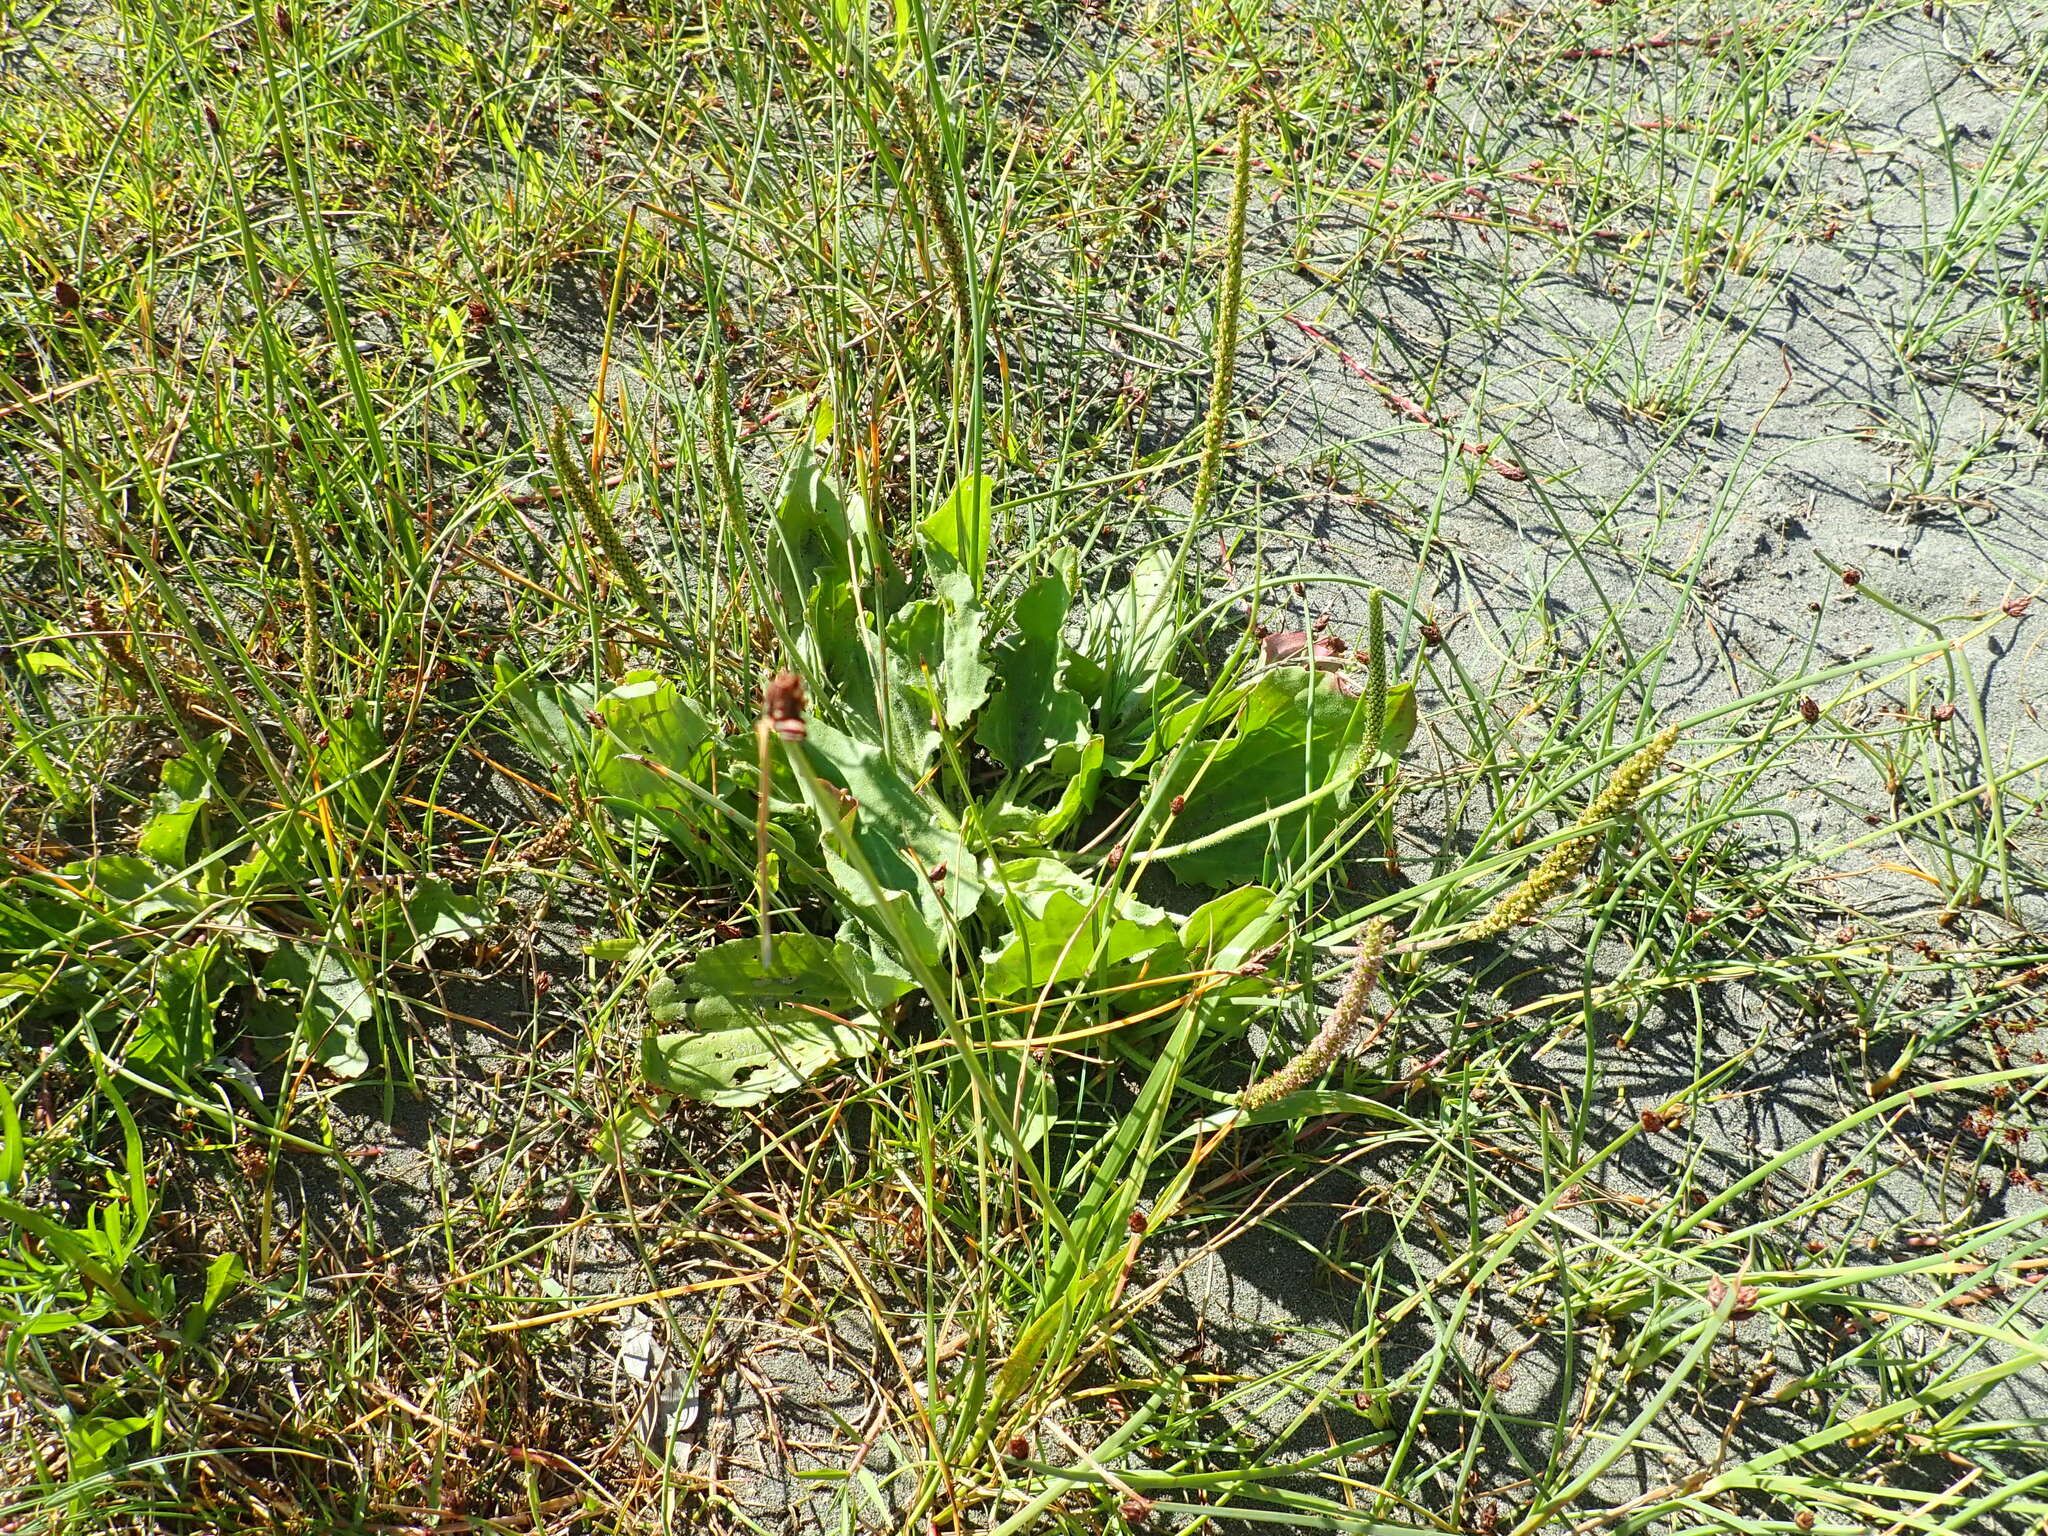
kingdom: Plantae
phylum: Tracheophyta
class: Magnoliopsida
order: Lamiales
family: Plantaginaceae
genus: Plantago
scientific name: Plantago major
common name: Common plantain
